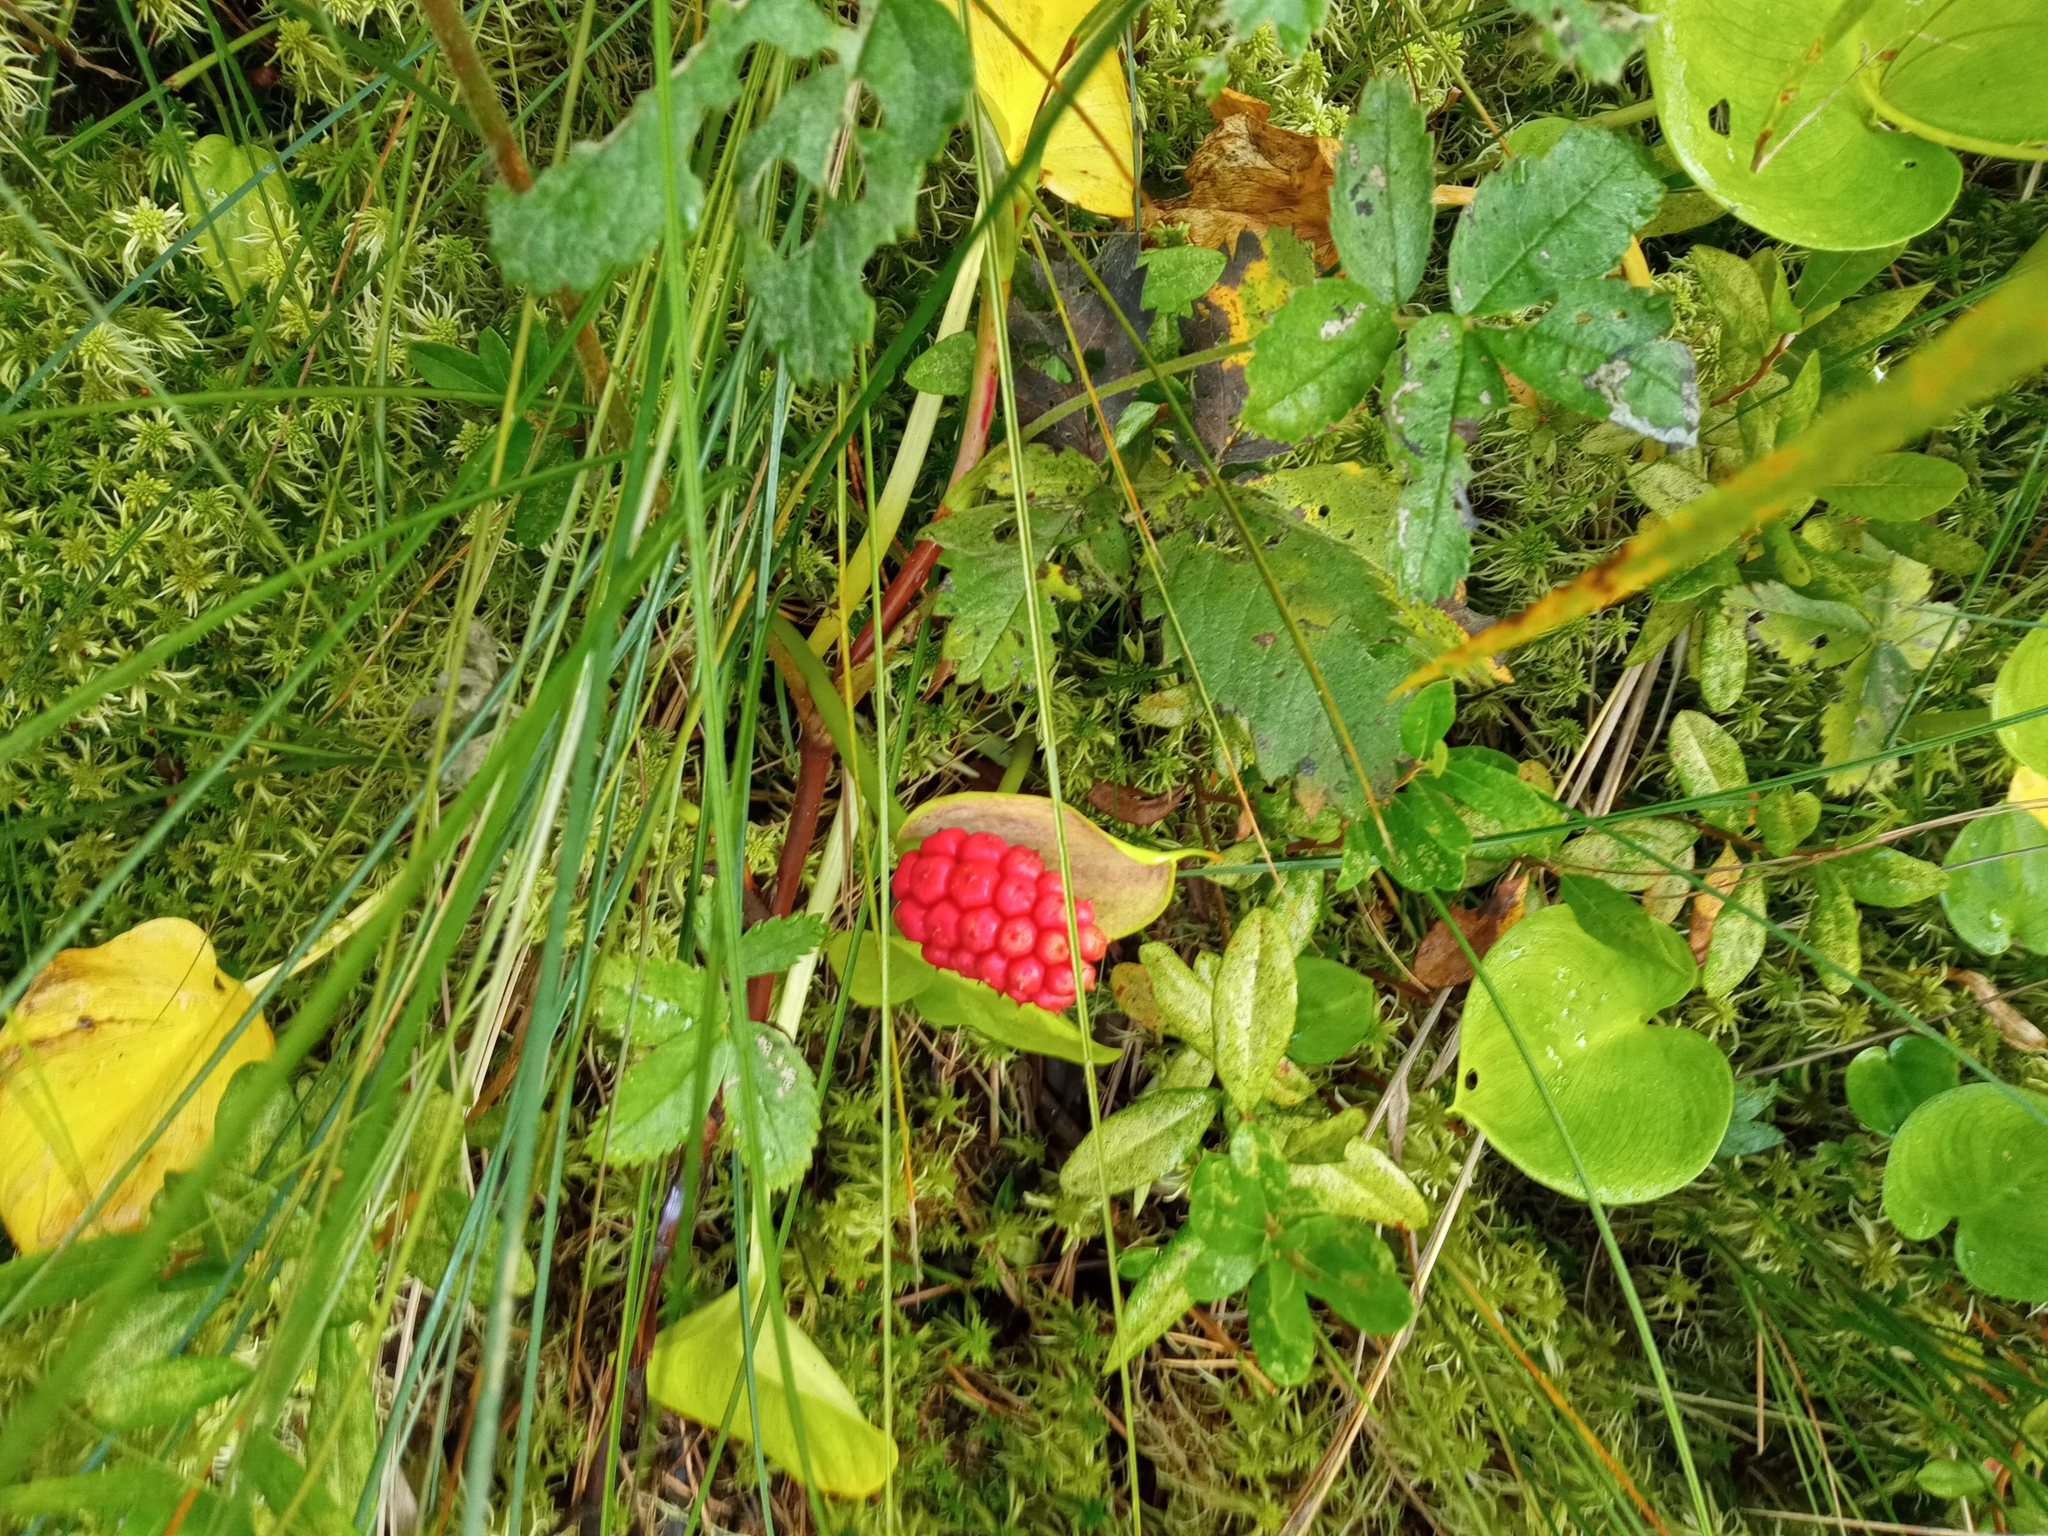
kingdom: Plantae
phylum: Tracheophyta
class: Liliopsida
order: Alismatales
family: Araceae
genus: Calla
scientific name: Calla palustris
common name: Bog arum
